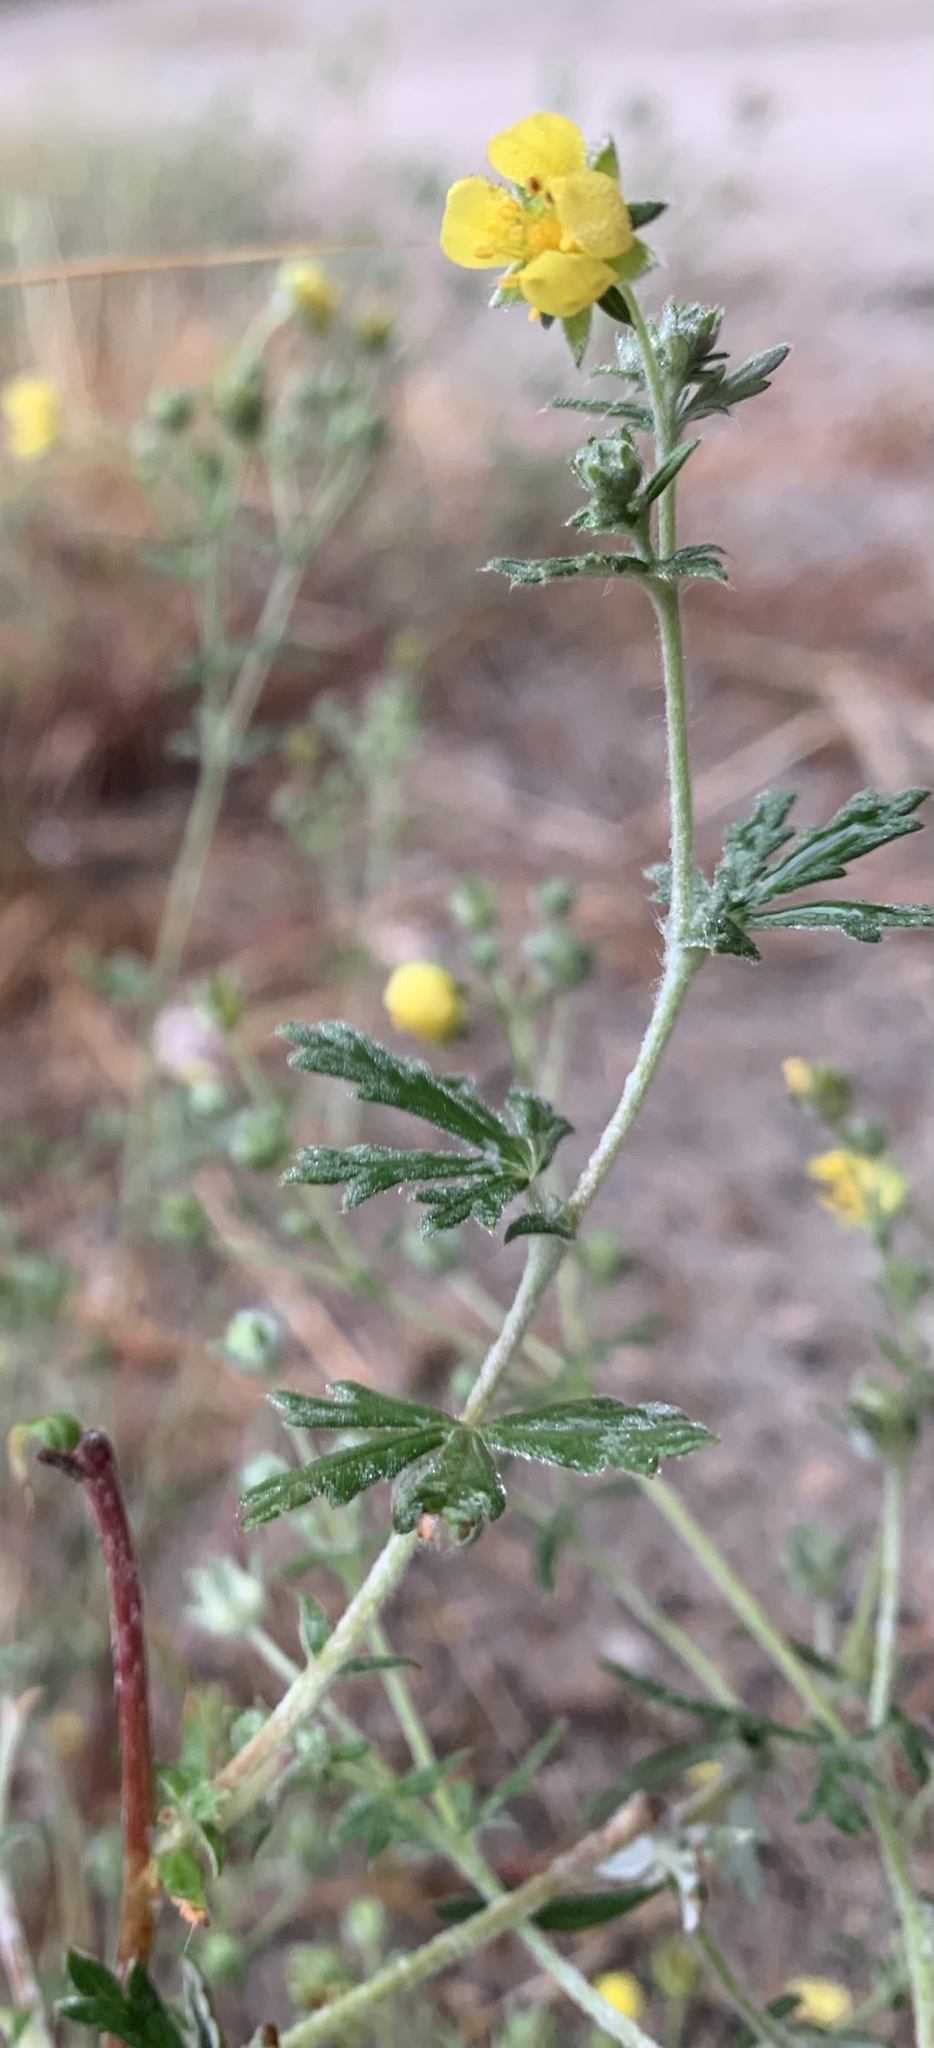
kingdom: Plantae
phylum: Tracheophyta
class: Magnoliopsida
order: Rosales
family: Rosaceae
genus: Potentilla
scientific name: Potentilla argentea
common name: Hoary cinquefoil
